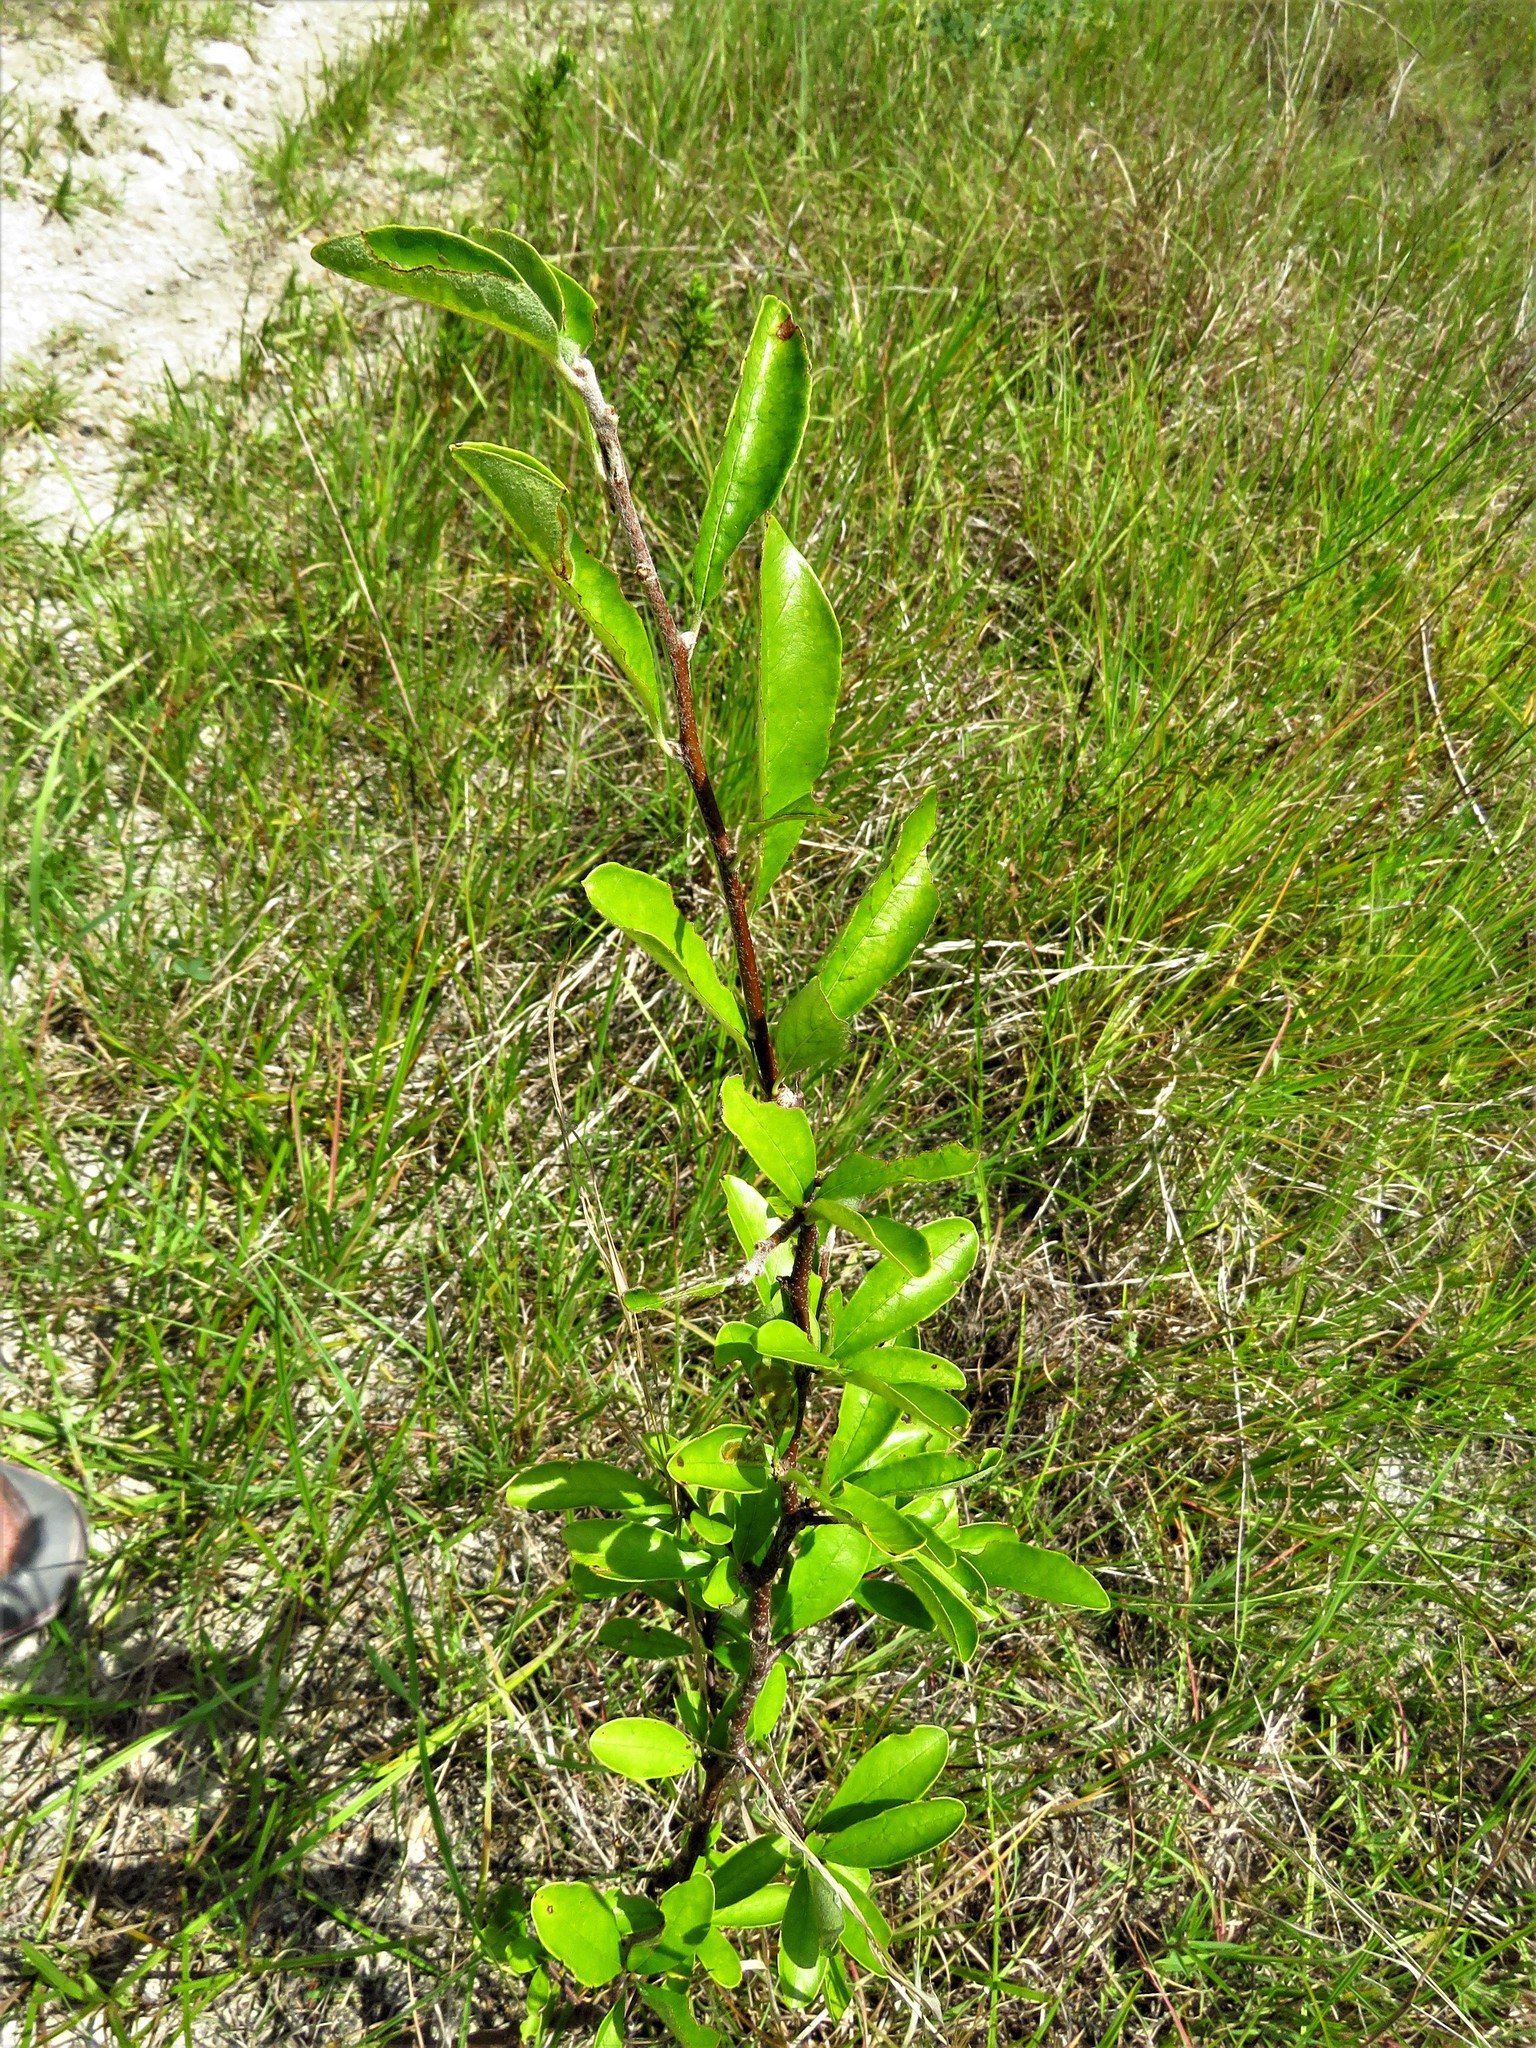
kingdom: Plantae
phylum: Tracheophyta
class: Magnoliopsida
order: Ericales
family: Sapotaceae
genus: Sideroxylon
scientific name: Sideroxylon lanuginosum
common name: Chittamwood
